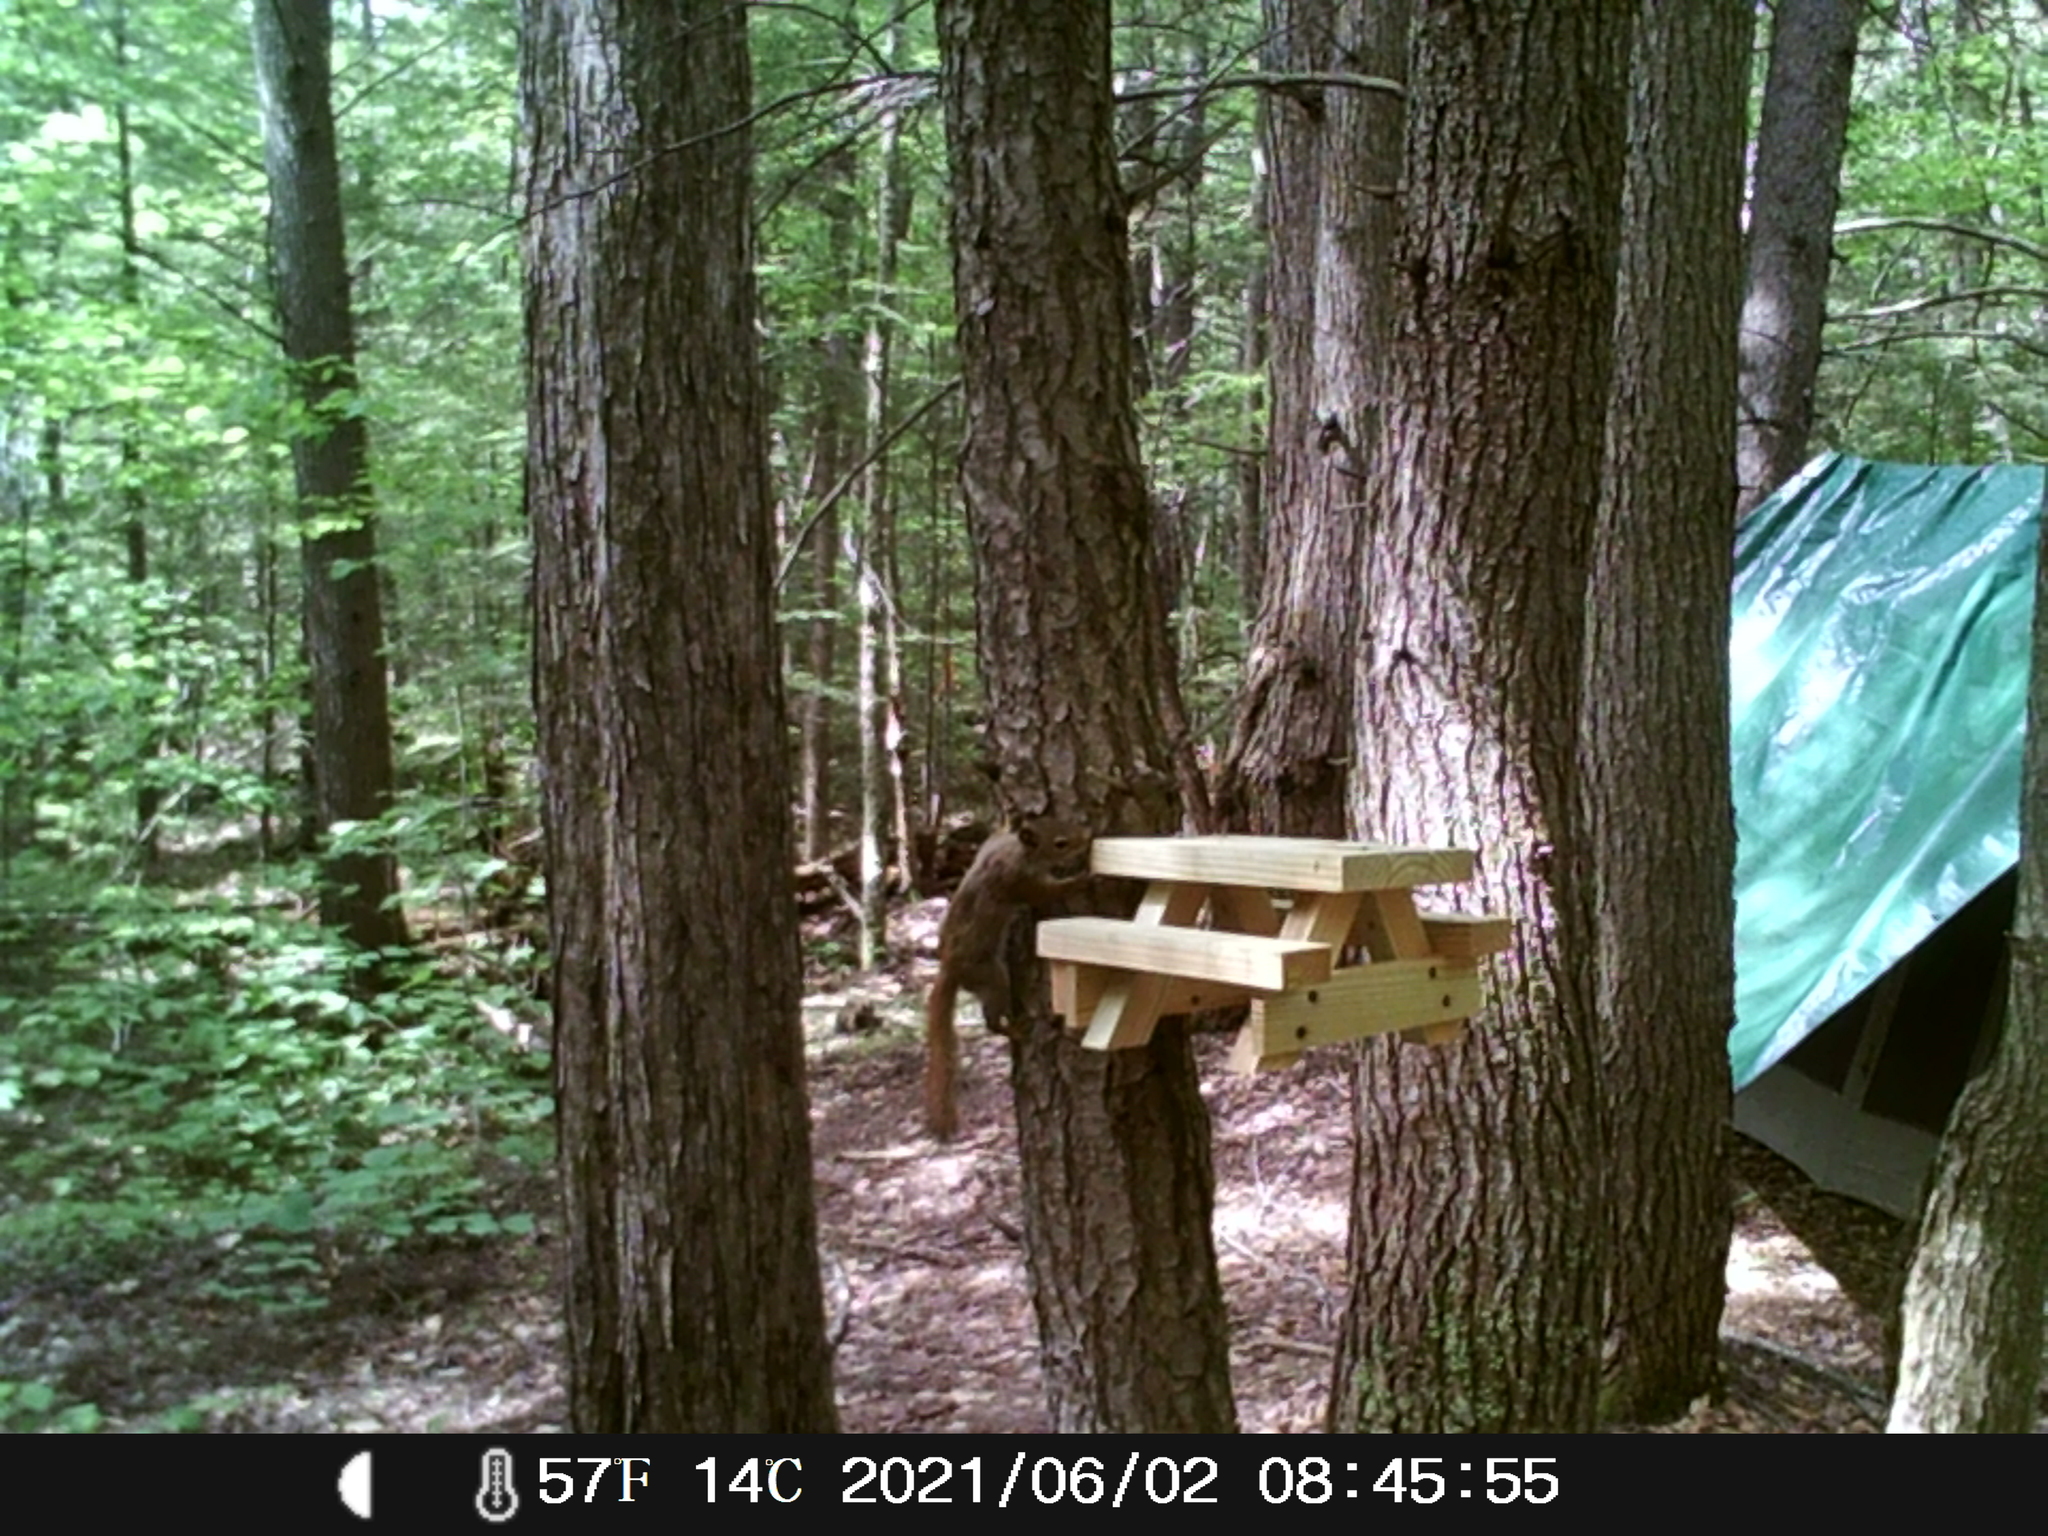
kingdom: Animalia
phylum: Chordata
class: Mammalia
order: Rodentia
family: Sciuridae
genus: Tamiasciurus
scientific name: Tamiasciurus hudsonicus
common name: Red squirrel
